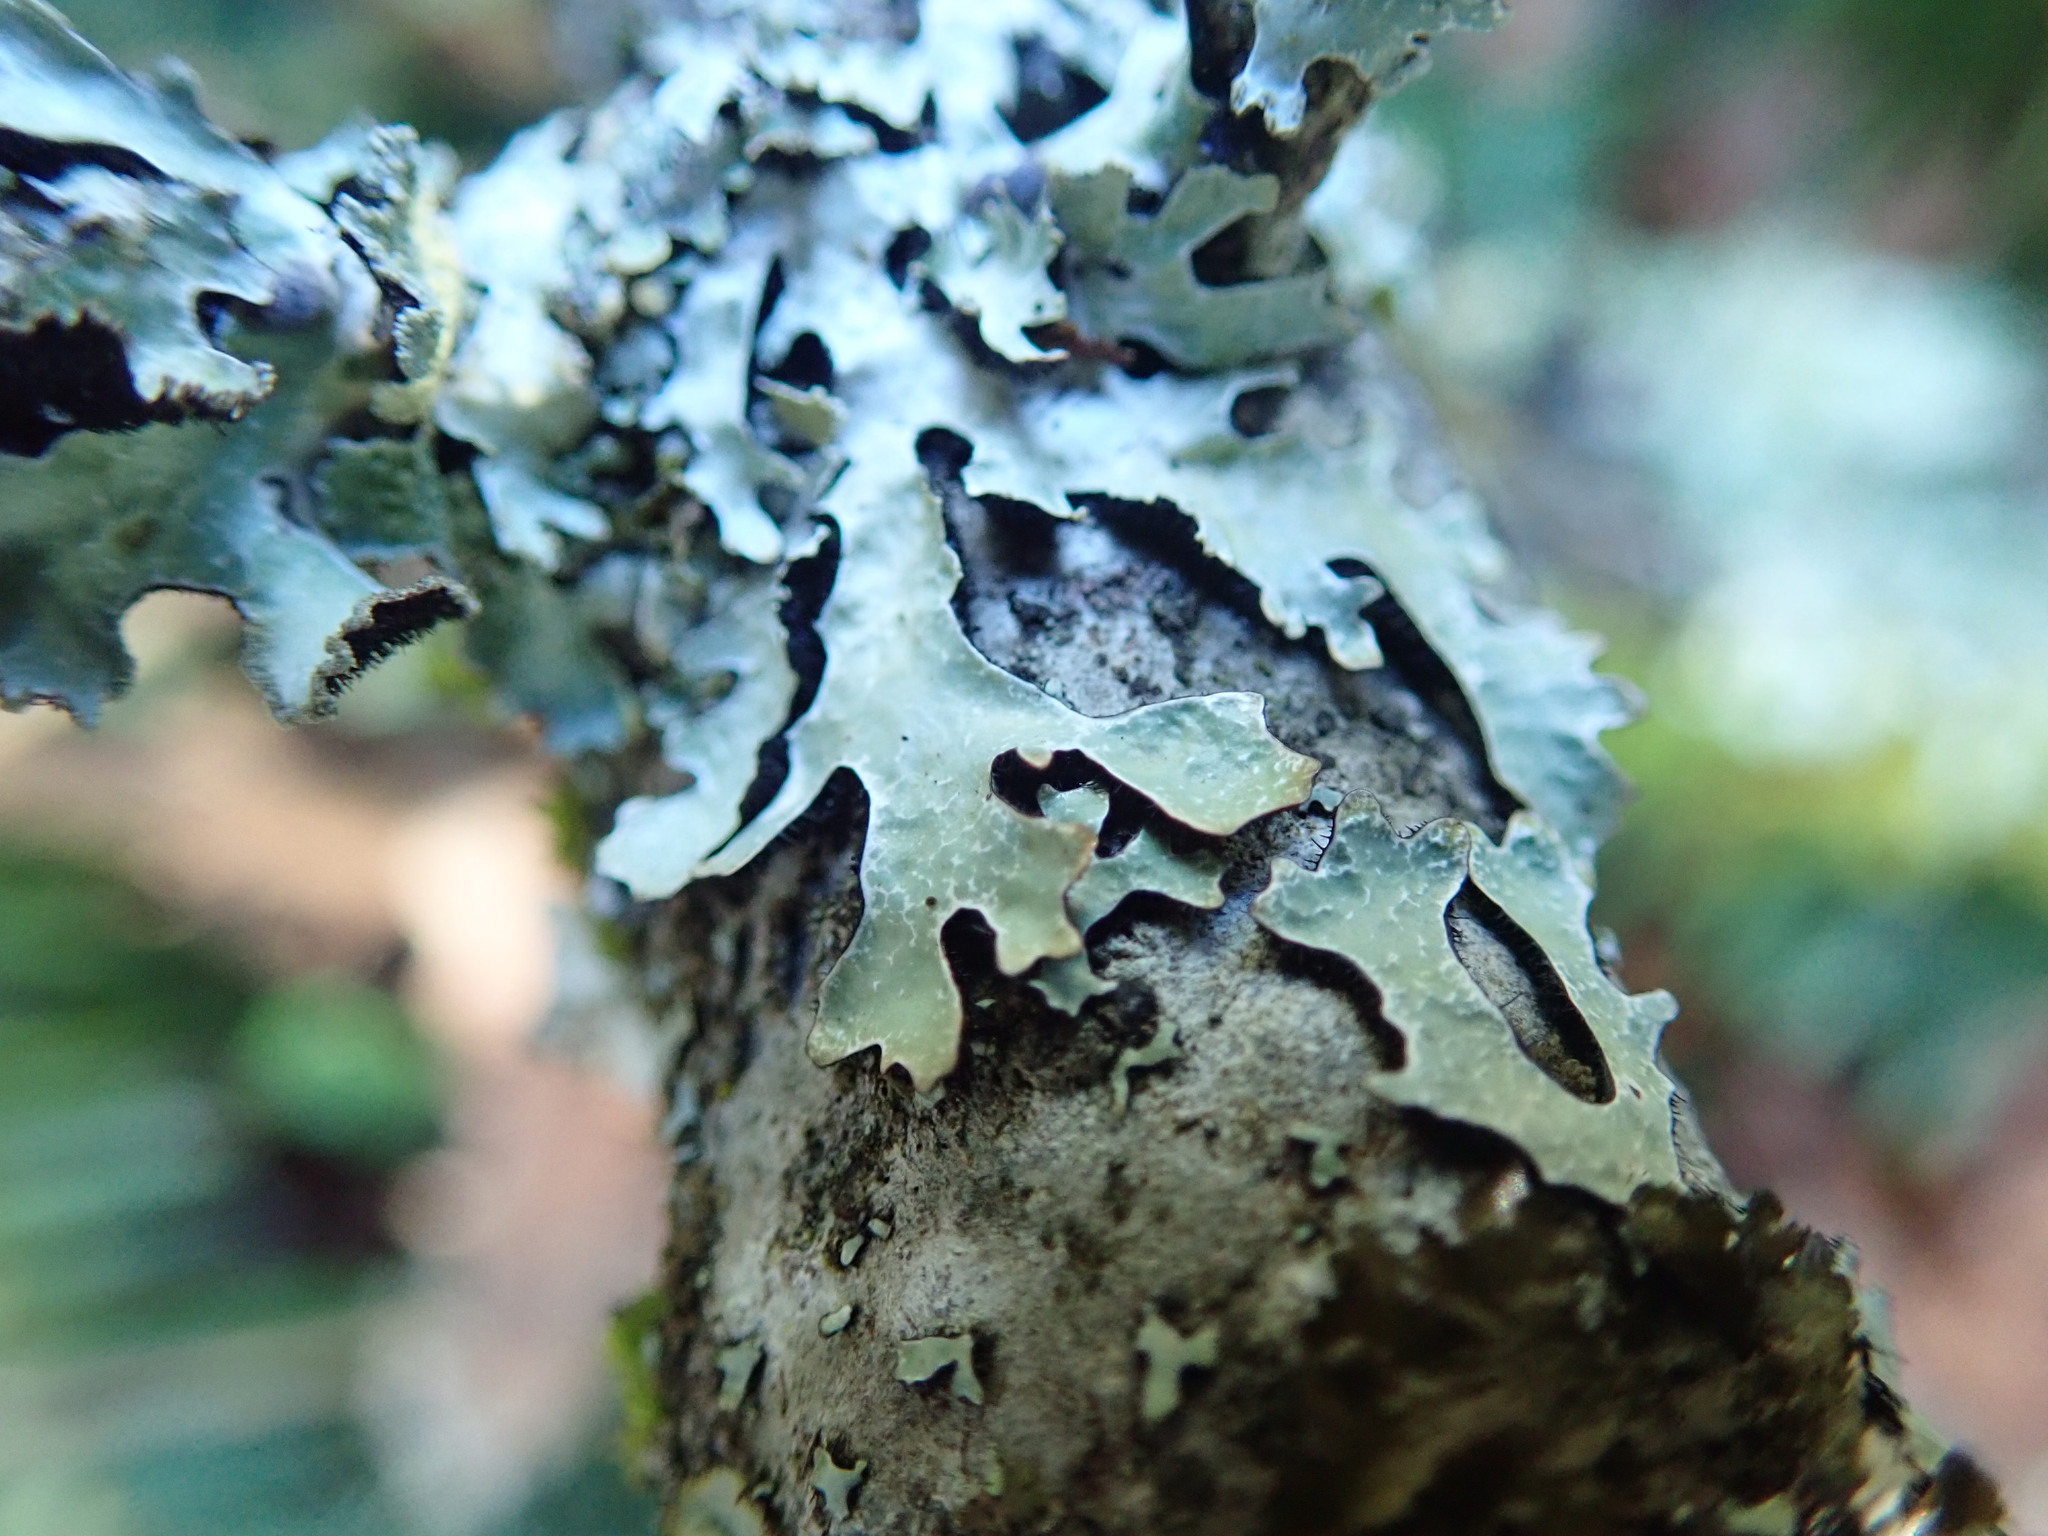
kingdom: Fungi
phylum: Ascomycota
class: Lecanoromycetes
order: Lecanorales
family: Parmeliaceae
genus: Parmelia
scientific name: Parmelia sulcata
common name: Netted shield lichen
